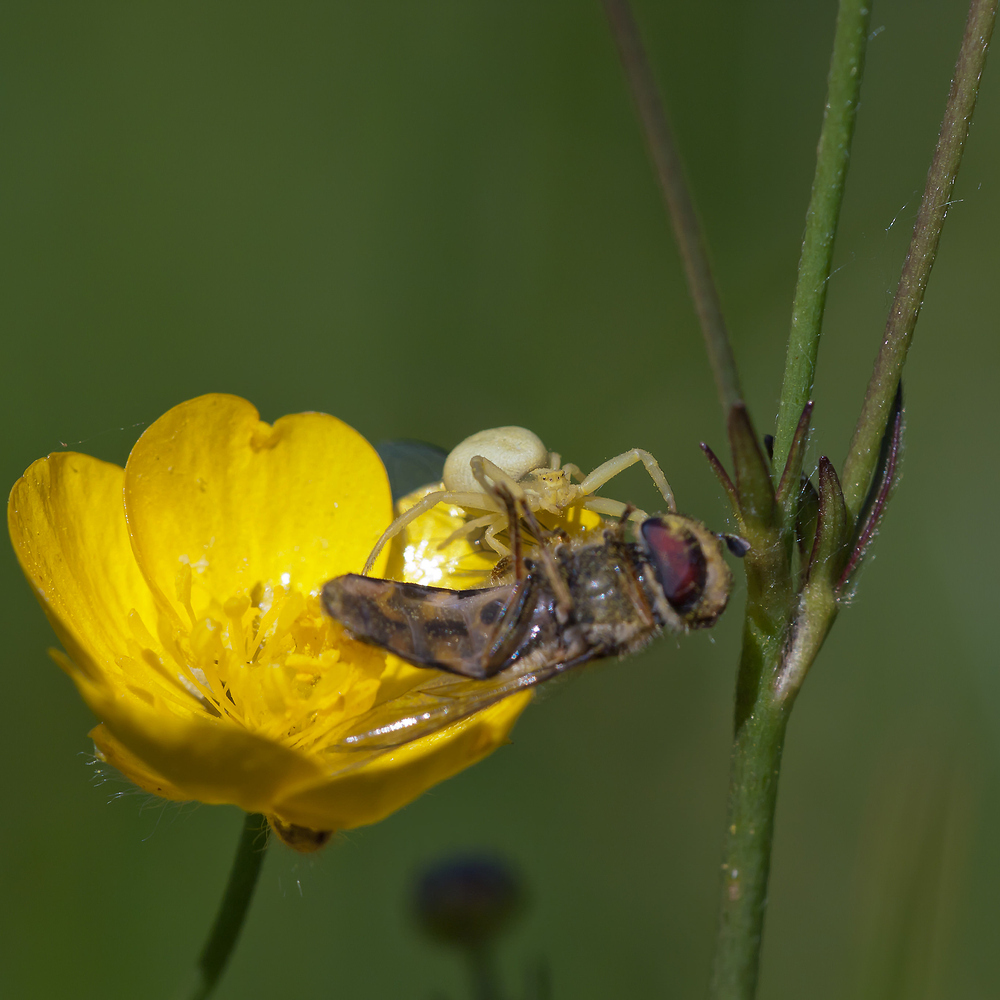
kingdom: Animalia
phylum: Arthropoda
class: Arachnida
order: Araneae
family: Thomisidae
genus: Misumena
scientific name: Misumena vatia
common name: Goldenrod crab spider
